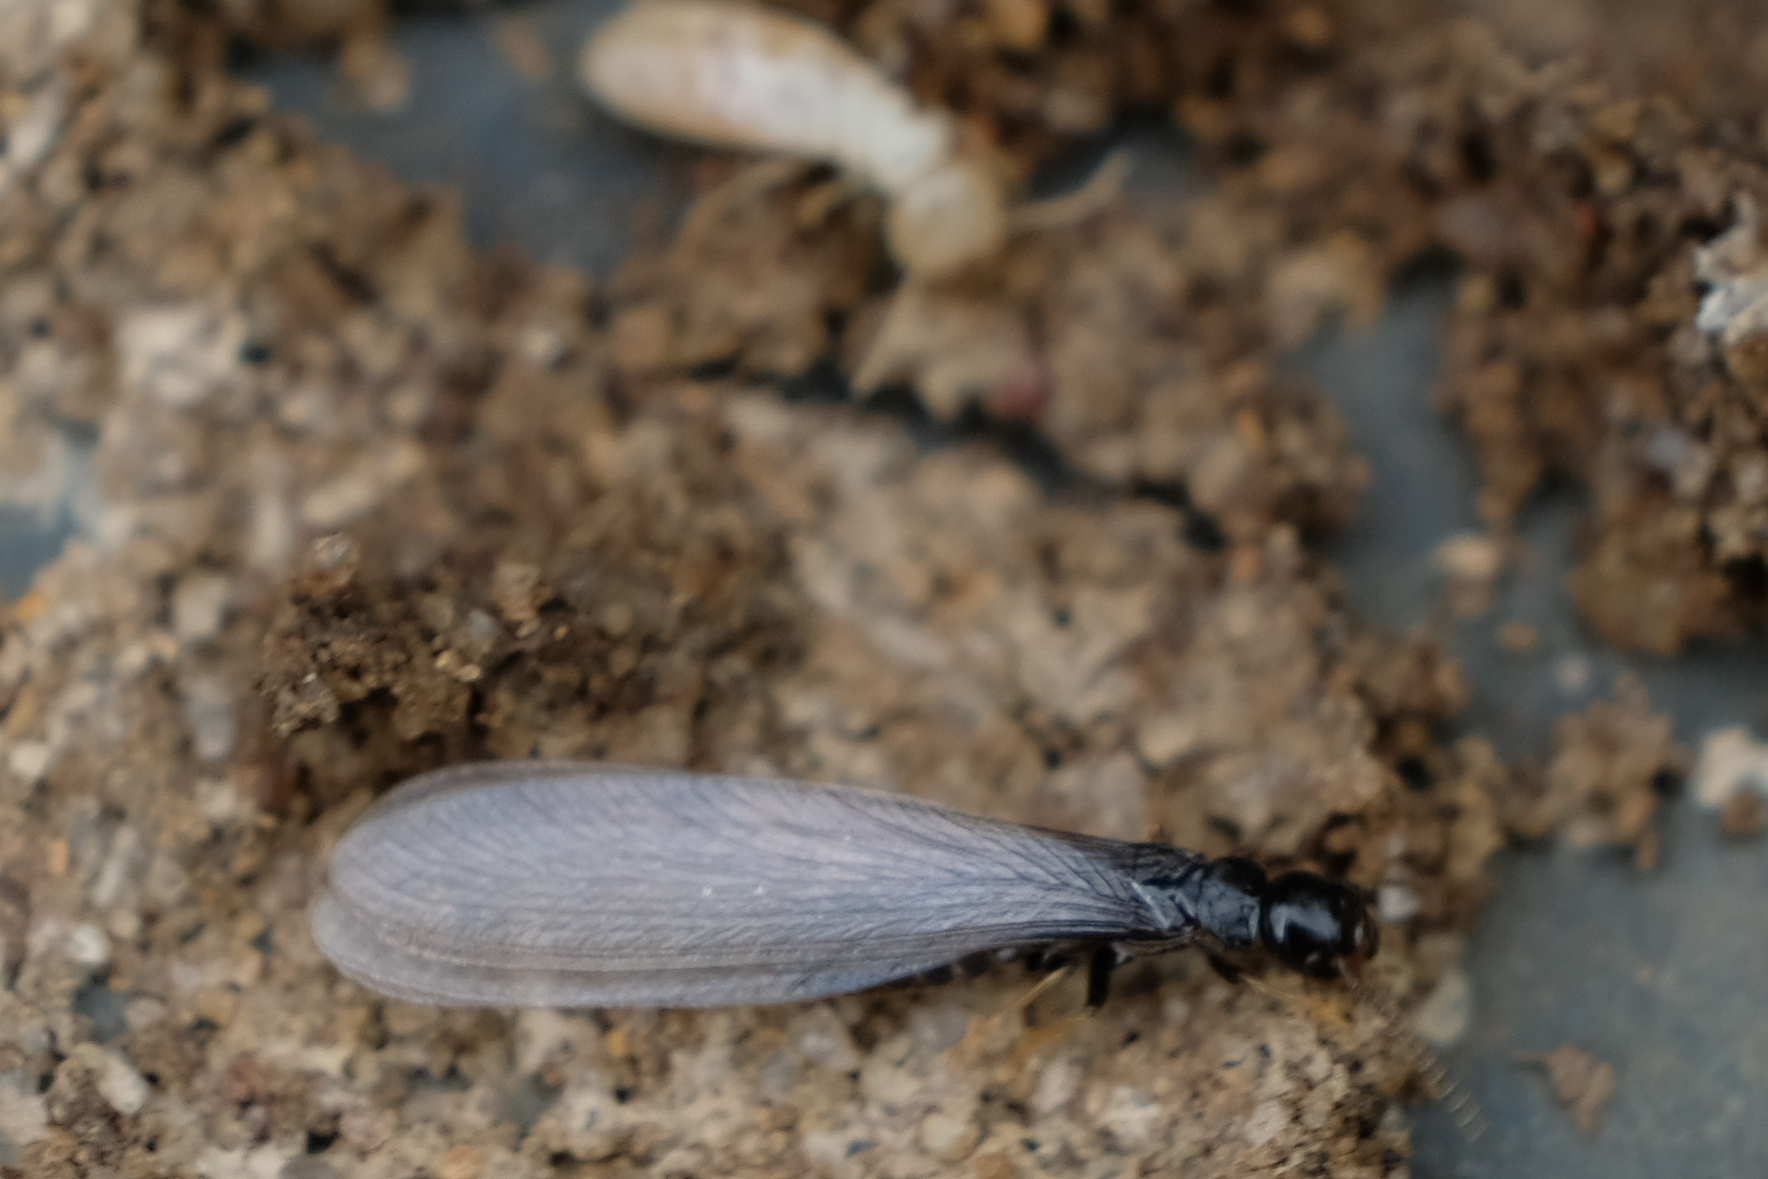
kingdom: Animalia
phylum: Arthropoda
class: Insecta
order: Blattodea
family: Rhinotermitidae
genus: Reticulitermes
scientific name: Reticulitermes flavipes
